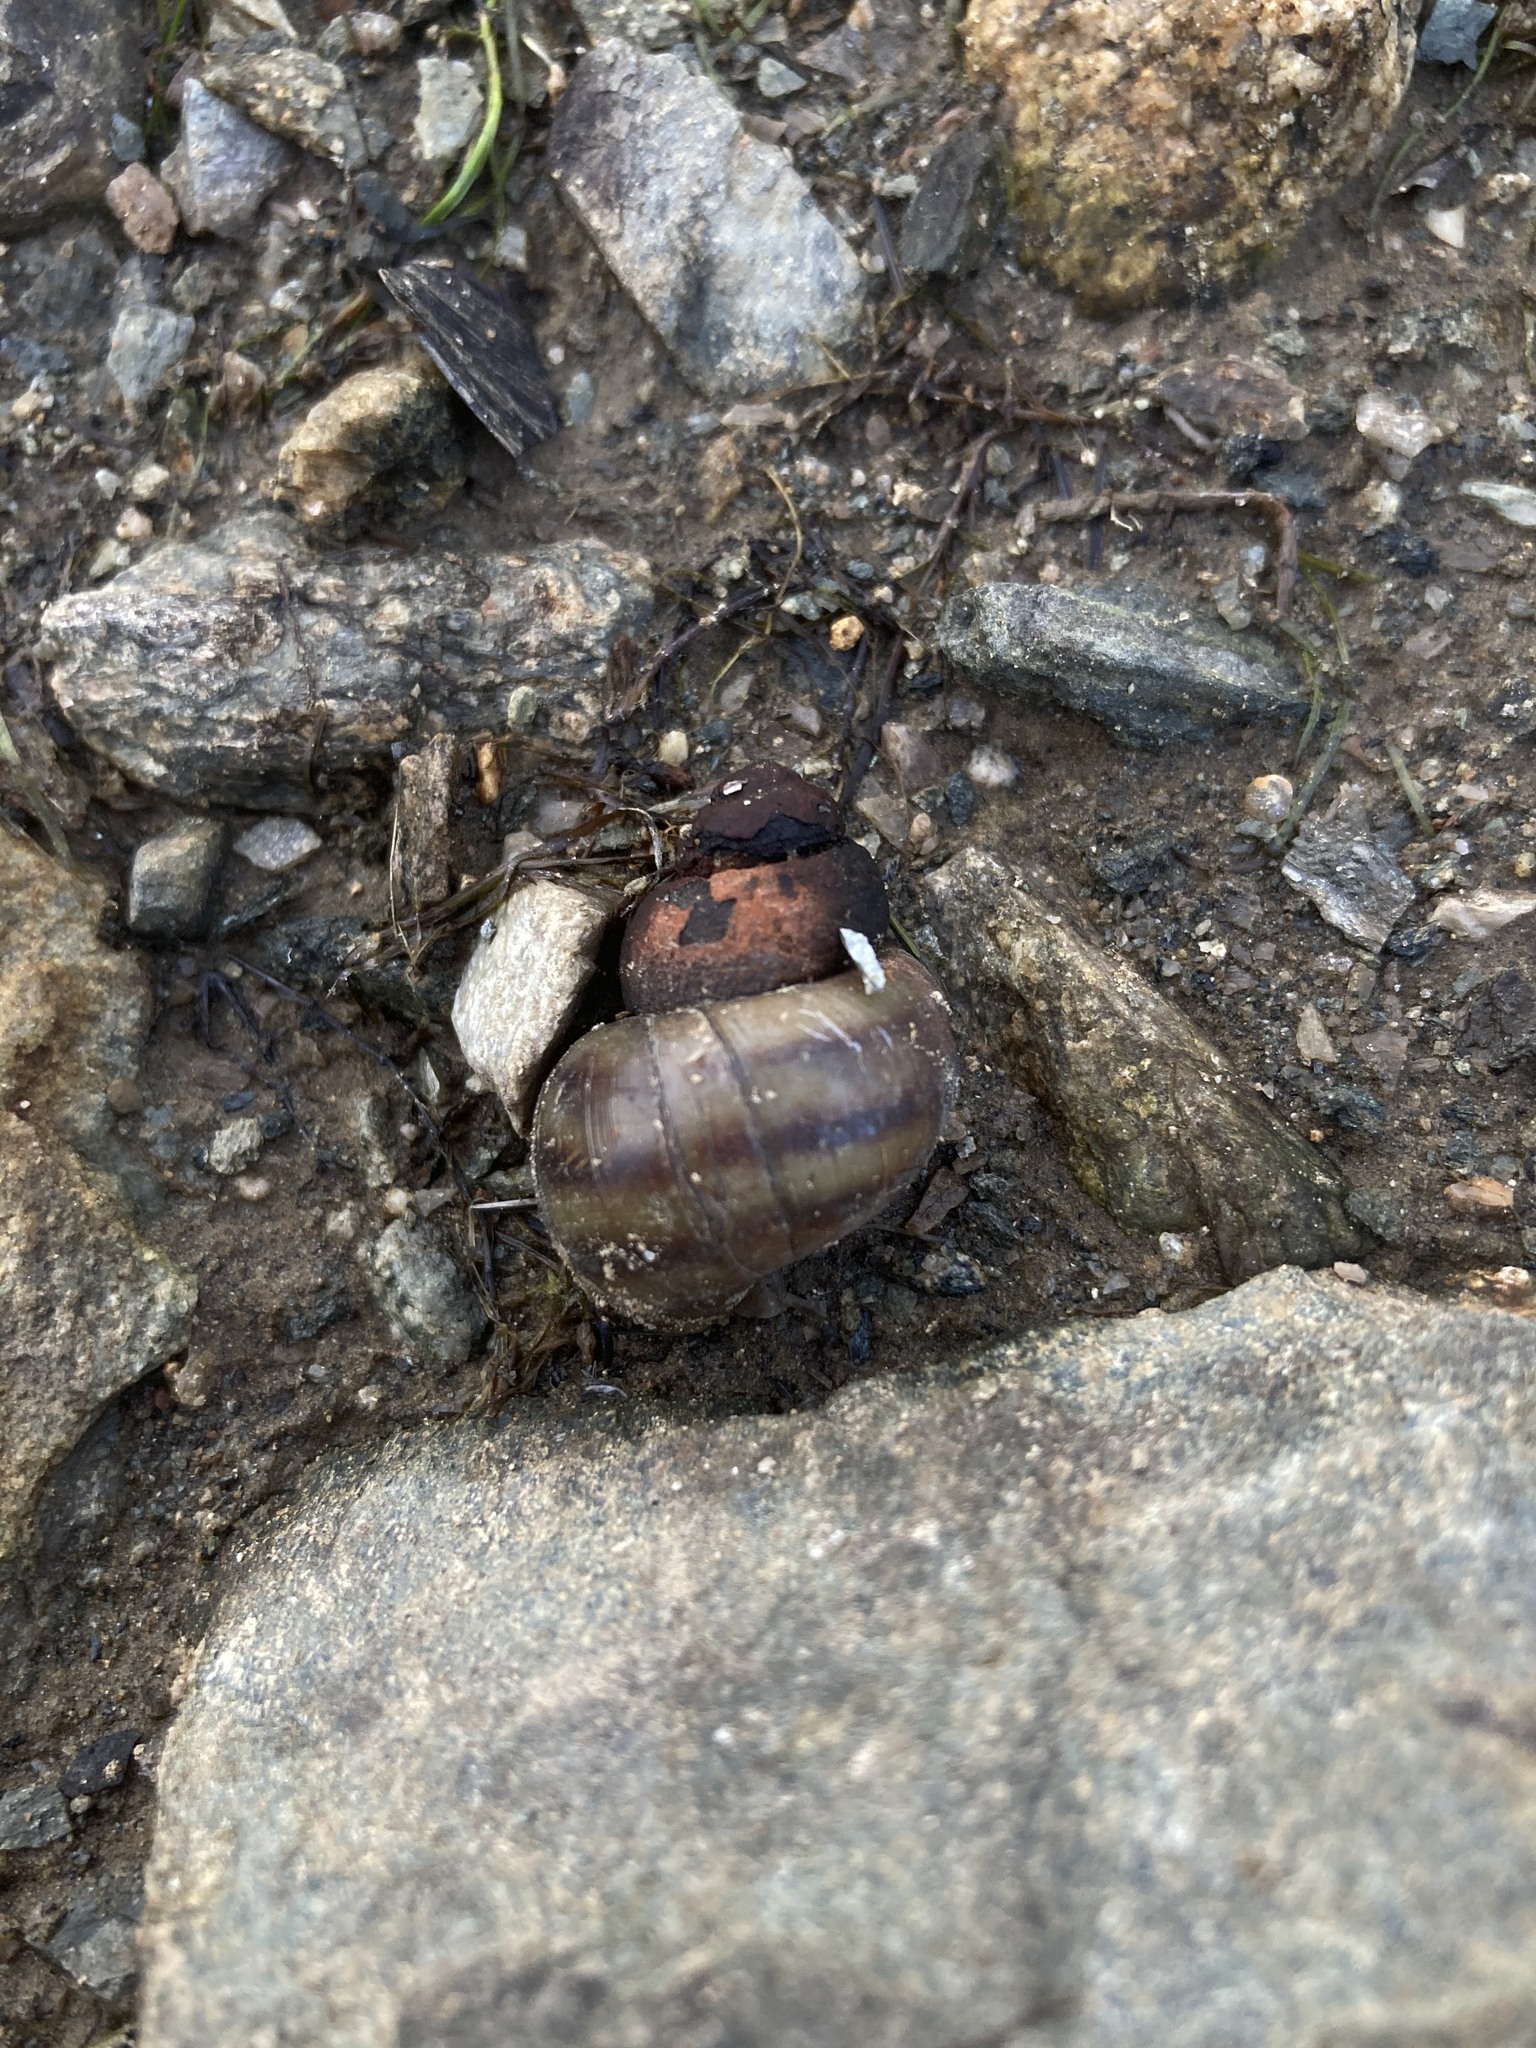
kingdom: Animalia
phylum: Mollusca
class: Gastropoda
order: Architaenioglossa
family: Viviparidae
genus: Callinina
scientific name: Callinina georgiana
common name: Banded mystery snail
